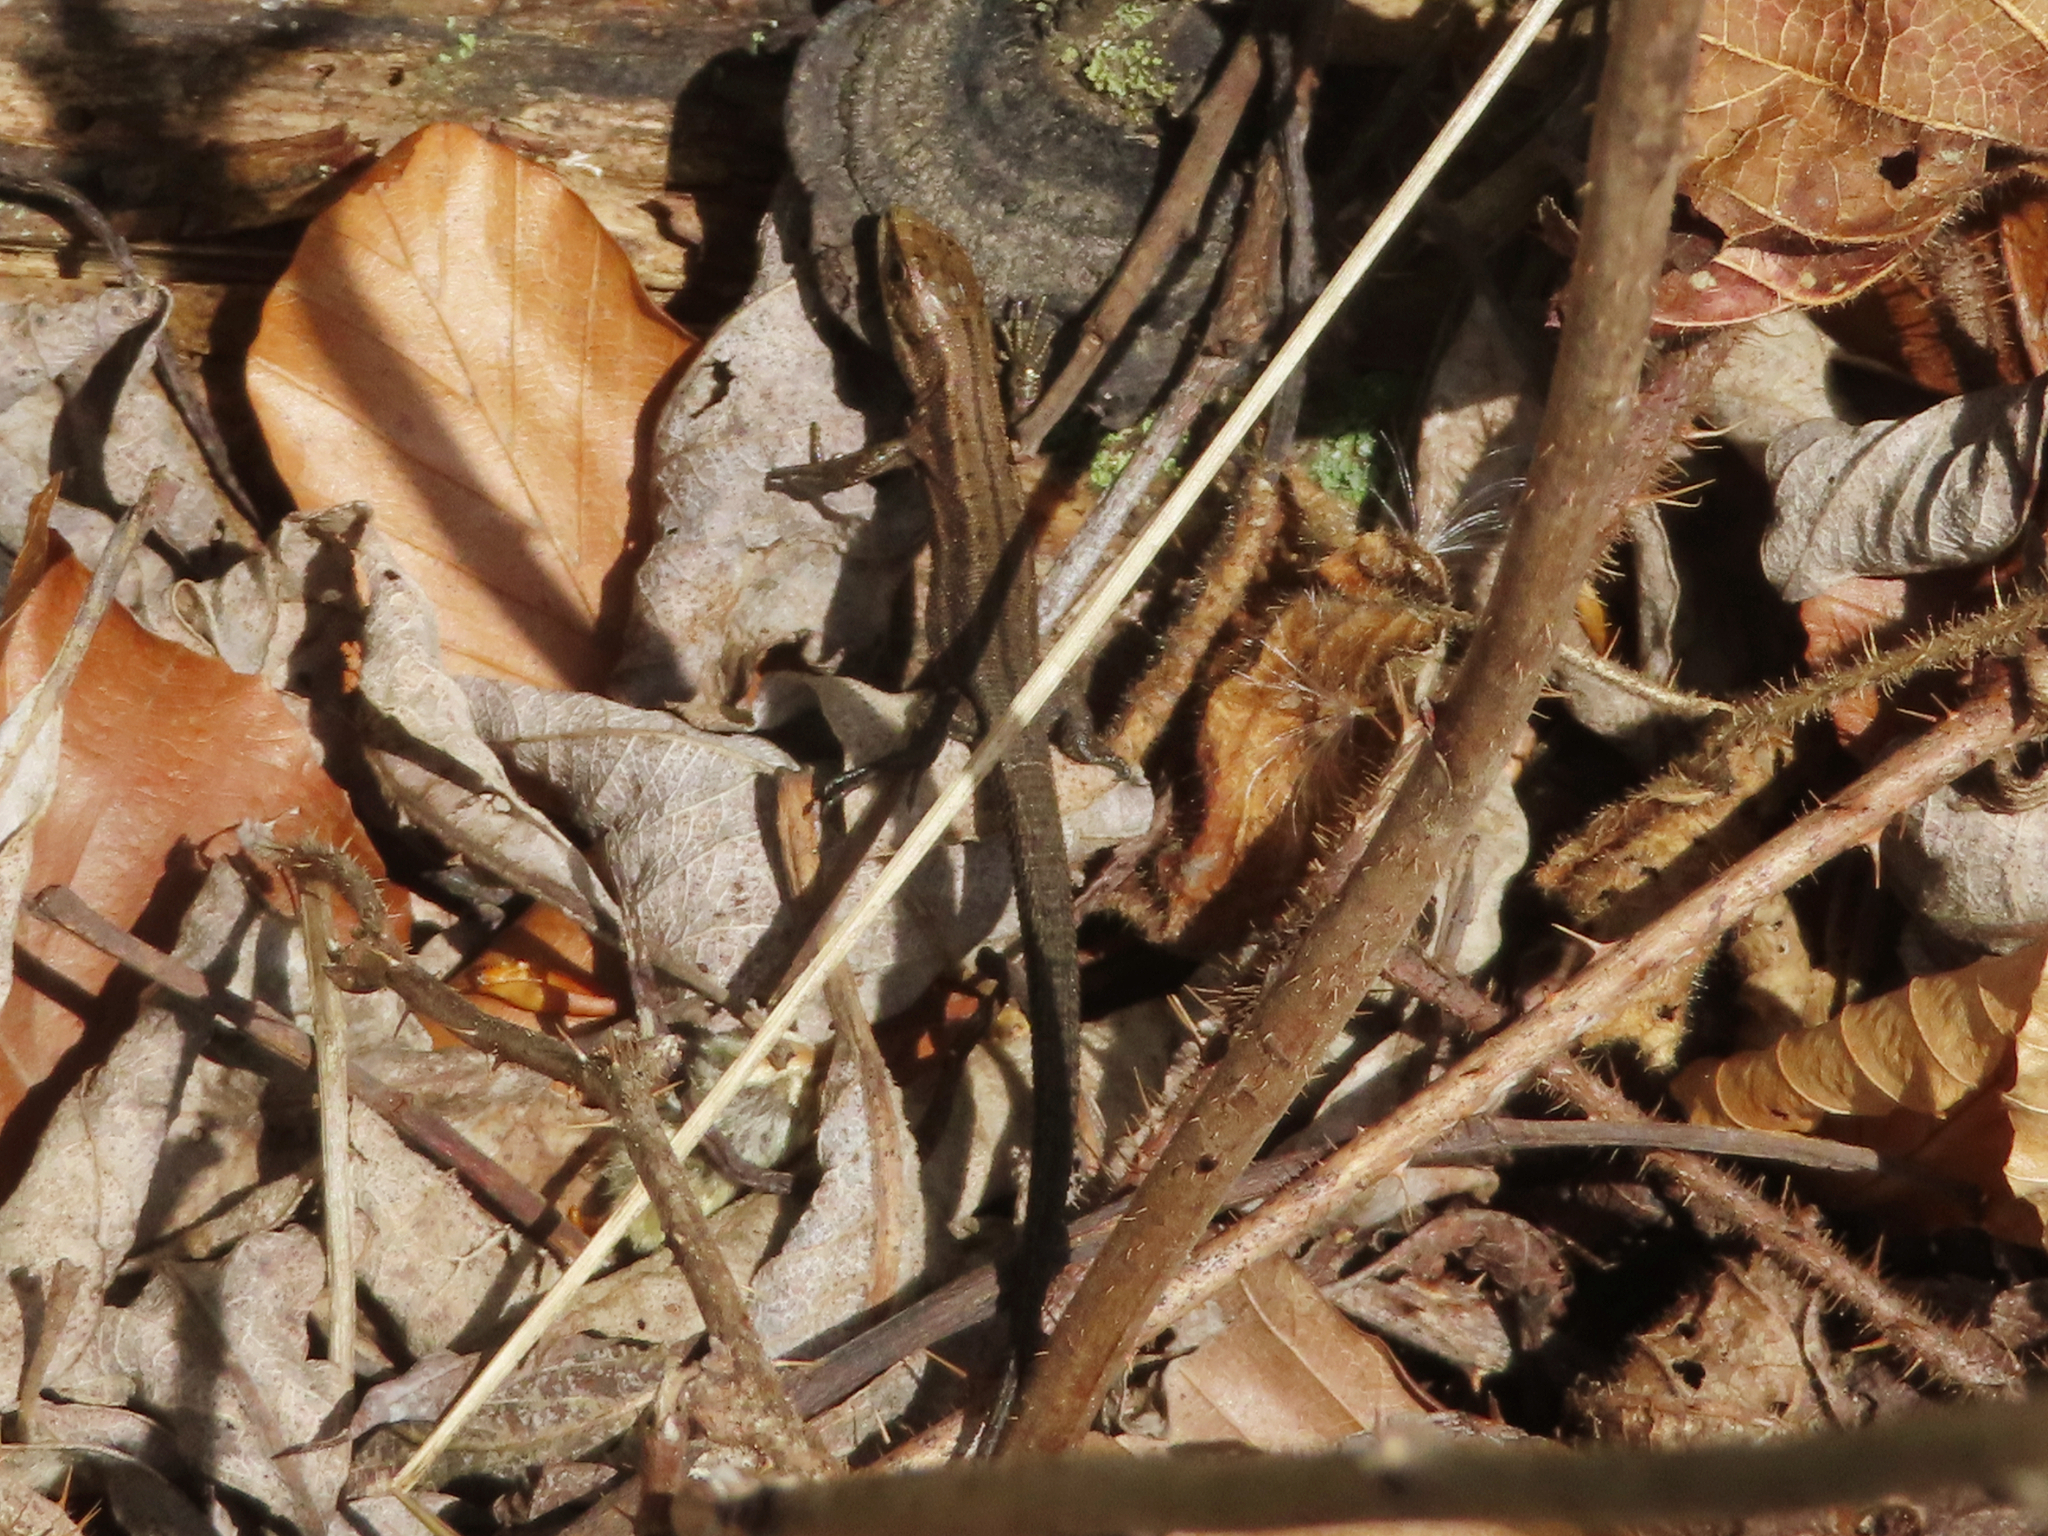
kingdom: Animalia
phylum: Chordata
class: Squamata
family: Lacertidae
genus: Zootoca
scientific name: Zootoca vivipara
